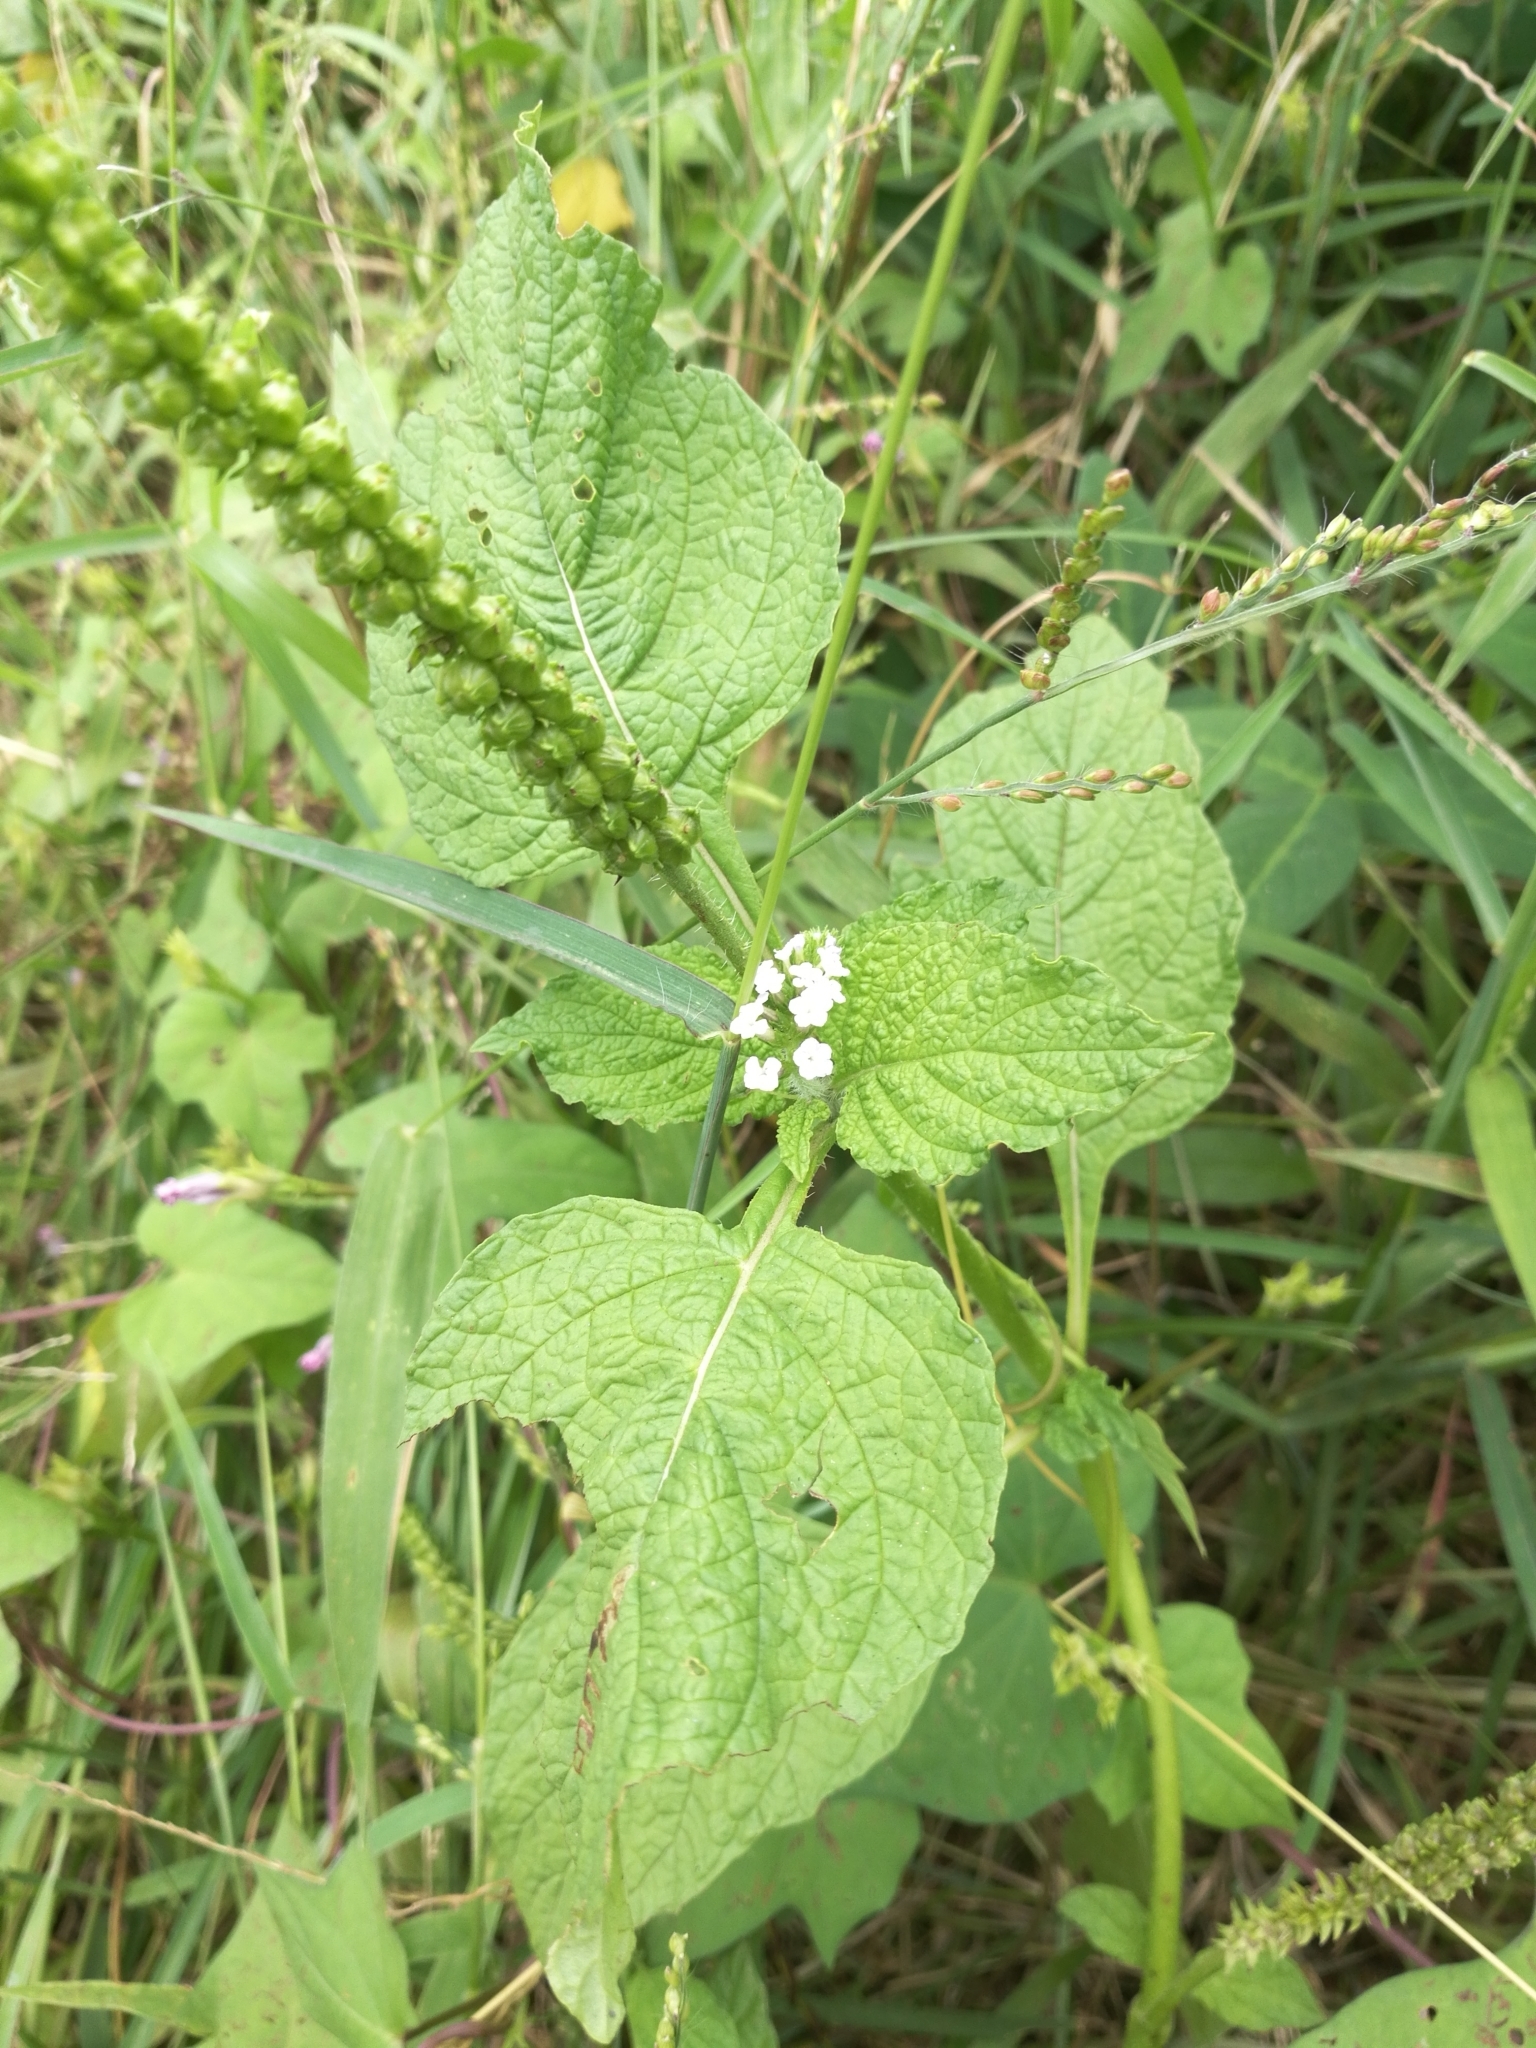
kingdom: Plantae
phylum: Tracheophyta
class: Magnoliopsida
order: Boraginales
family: Heliotropiaceae
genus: Heliotropium
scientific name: Heliotropium indicum
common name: Indian heliotrope
